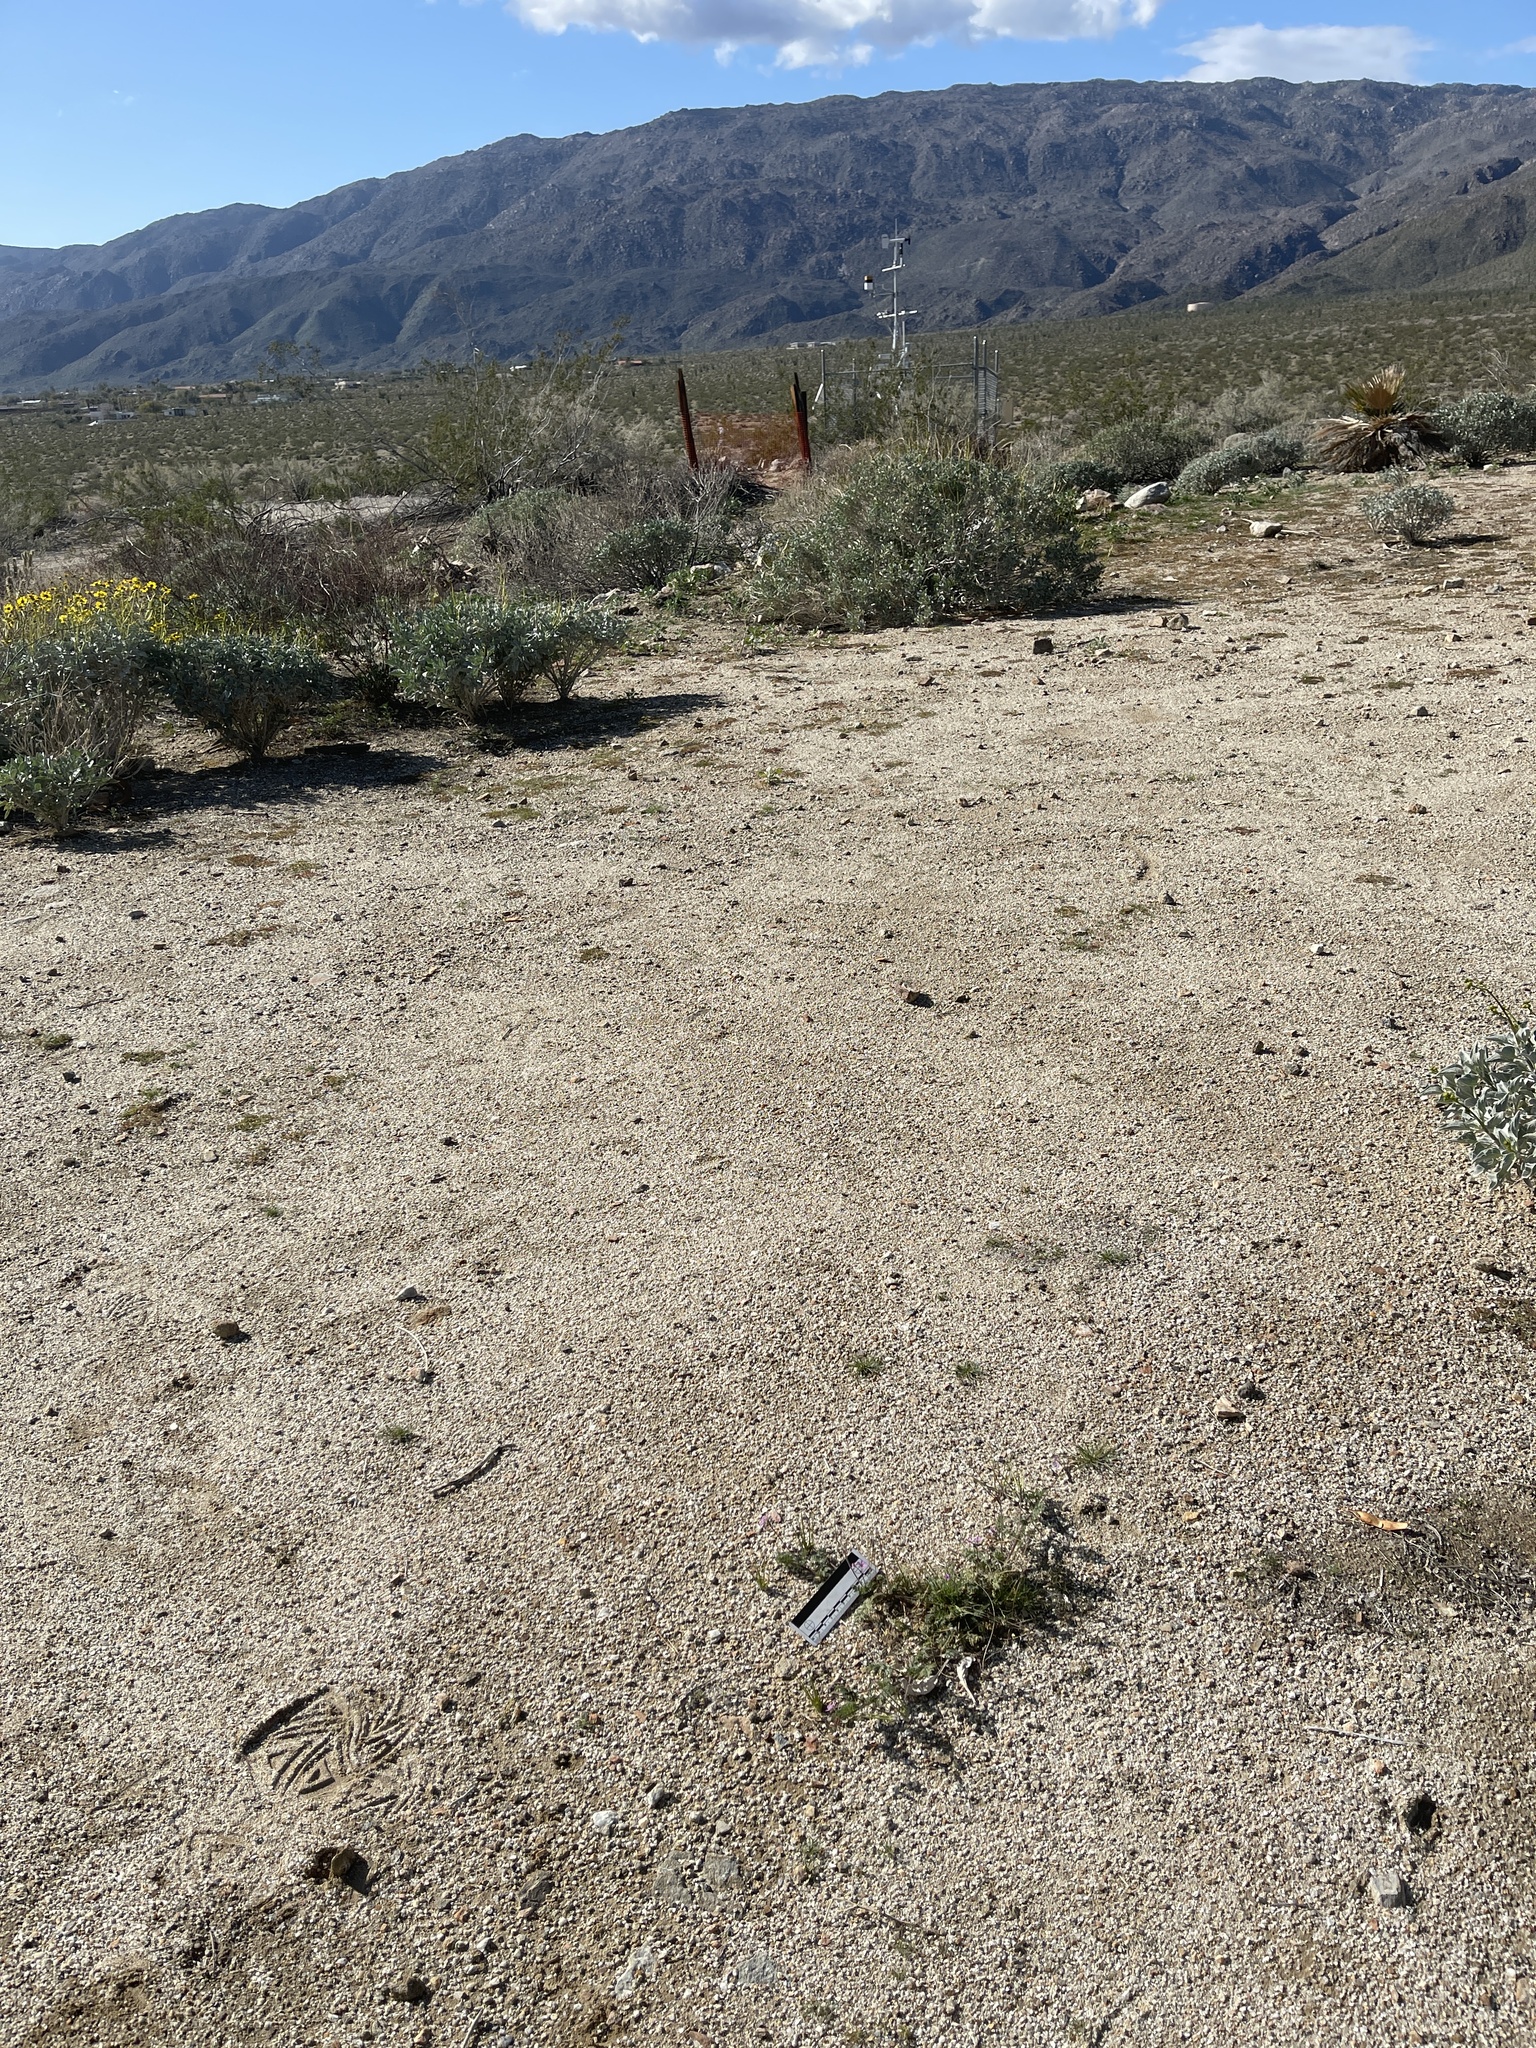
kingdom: Plantae
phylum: Tracheophyta
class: Magnoliopsida
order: Geraniales
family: Geraniaceae
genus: Erodium
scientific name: Erodium cicutarium
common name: Common stork's-bill
